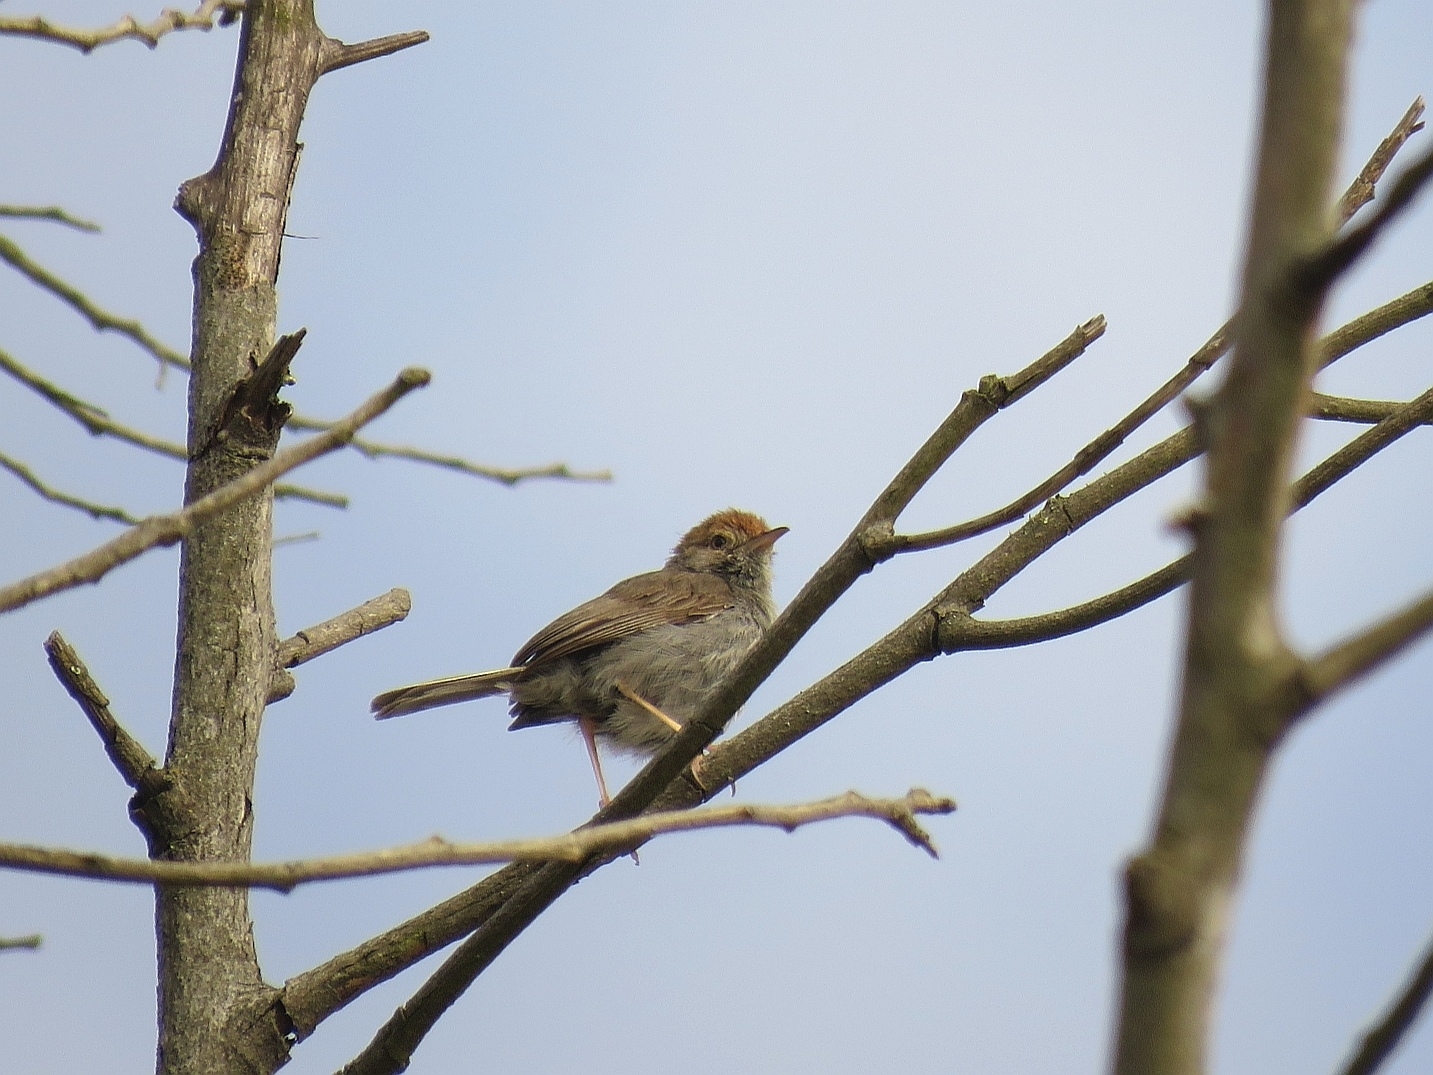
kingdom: Animalia
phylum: Chordata
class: Aves
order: Passeriformes
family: Cisticolidae
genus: Cisticola
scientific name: Cisticola fulvicapilla
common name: Neddicky
